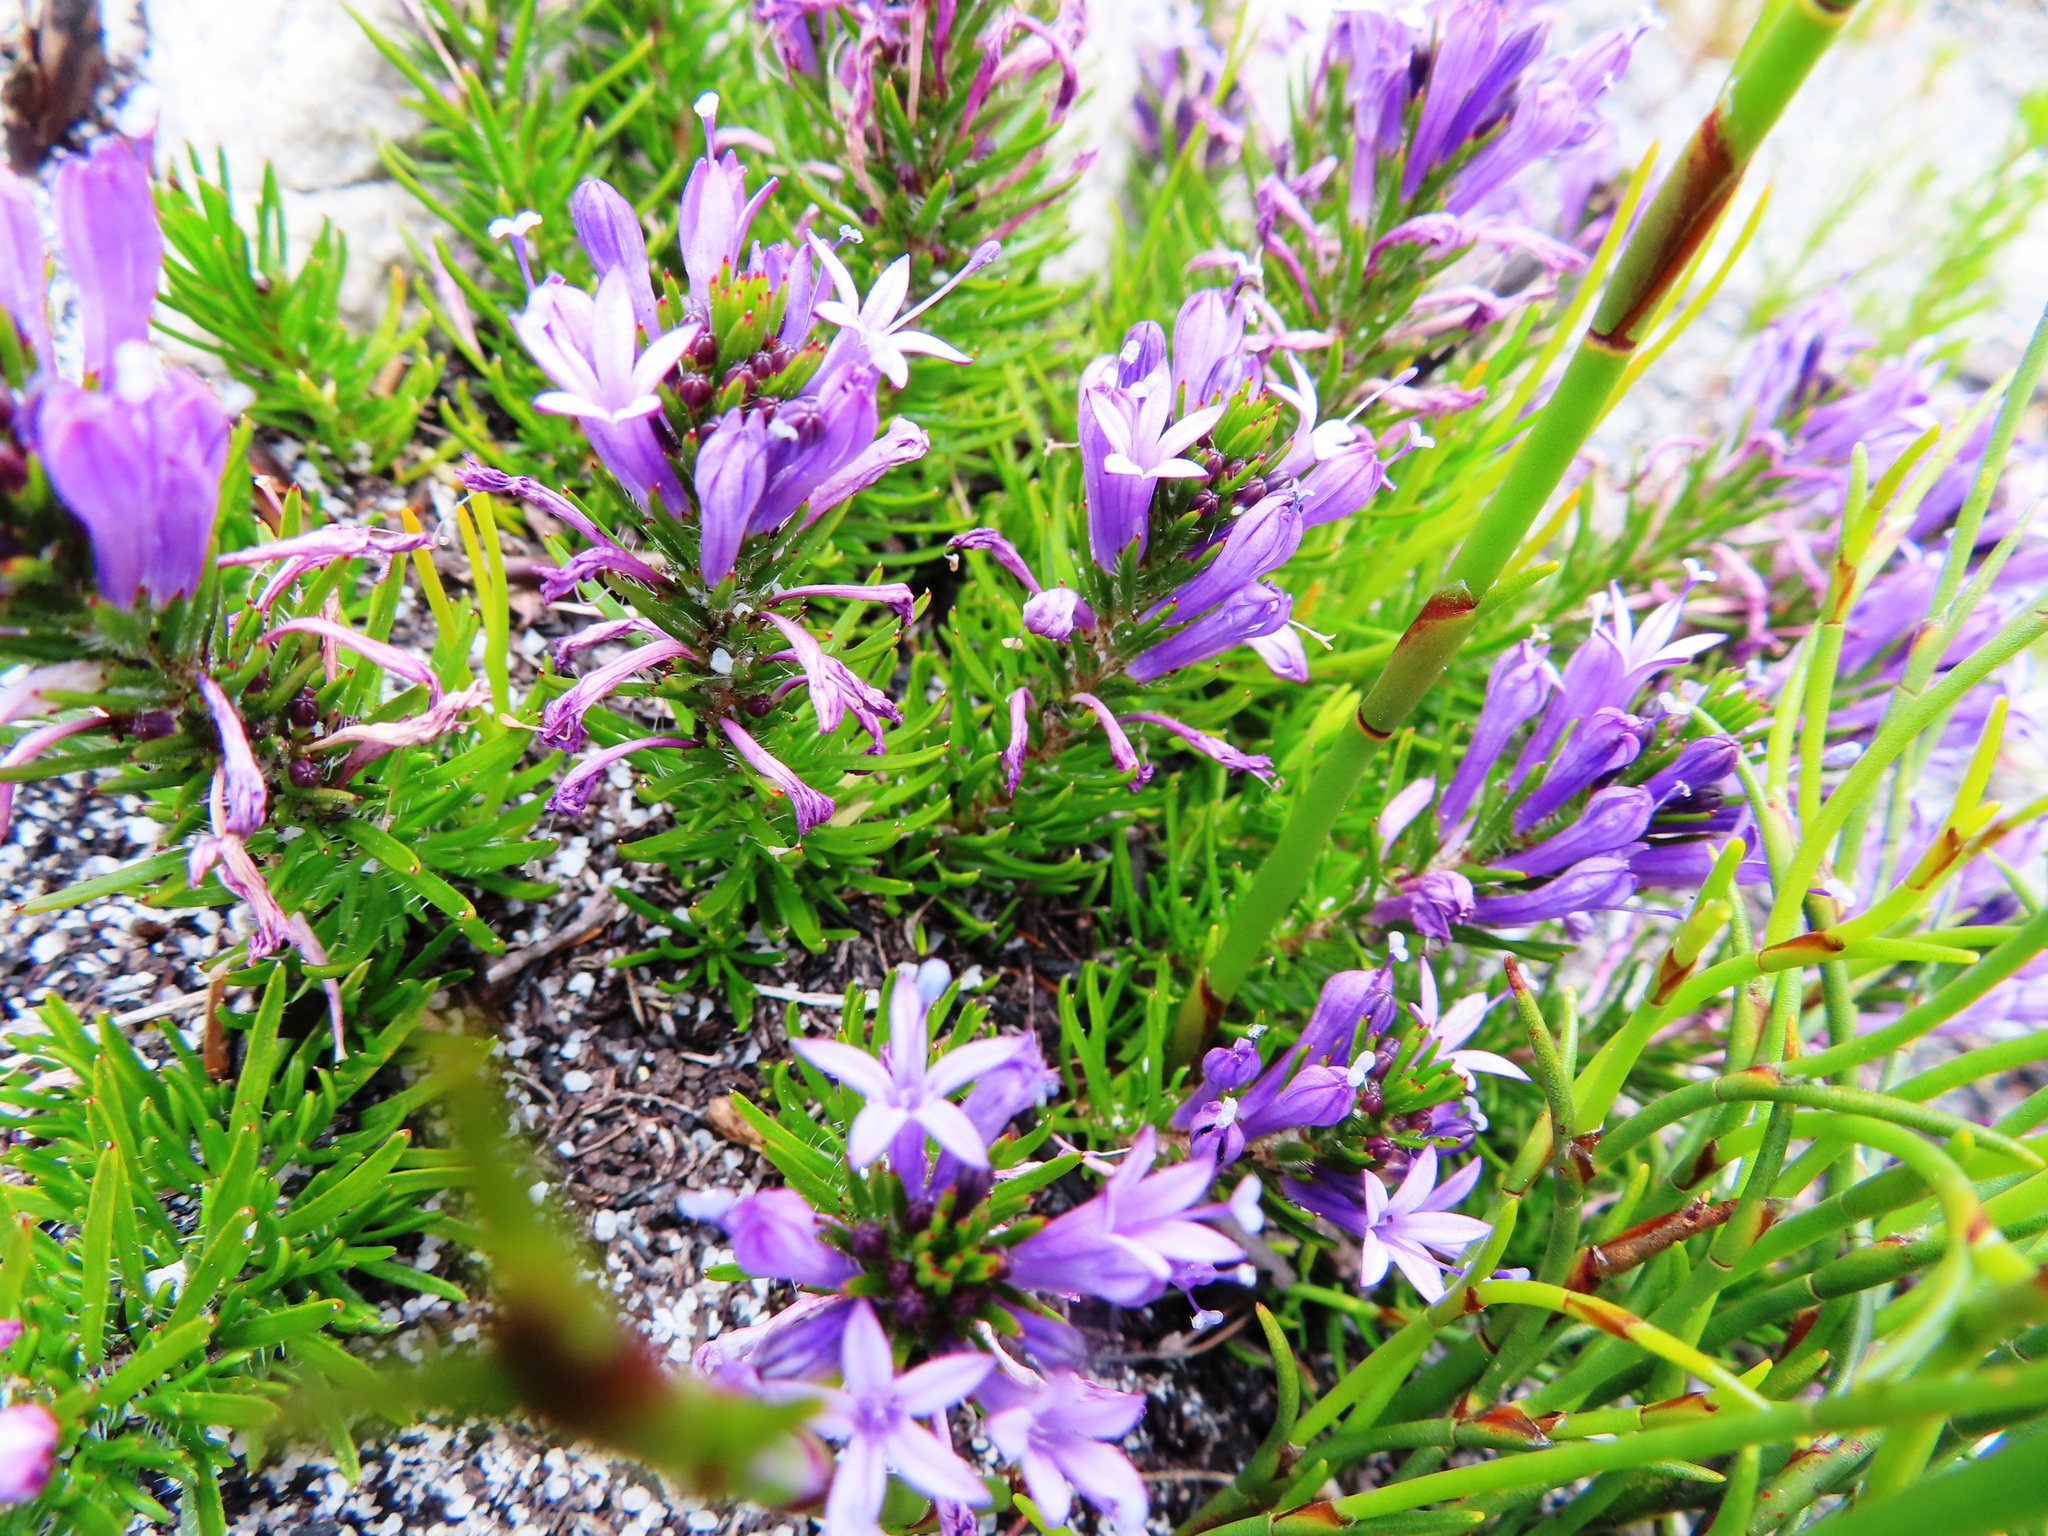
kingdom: Plantae
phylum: Tracheophyta
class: Magnoliopsida
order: Asterales
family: Campanulaceae
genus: Merciera
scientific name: Merciera azurea
